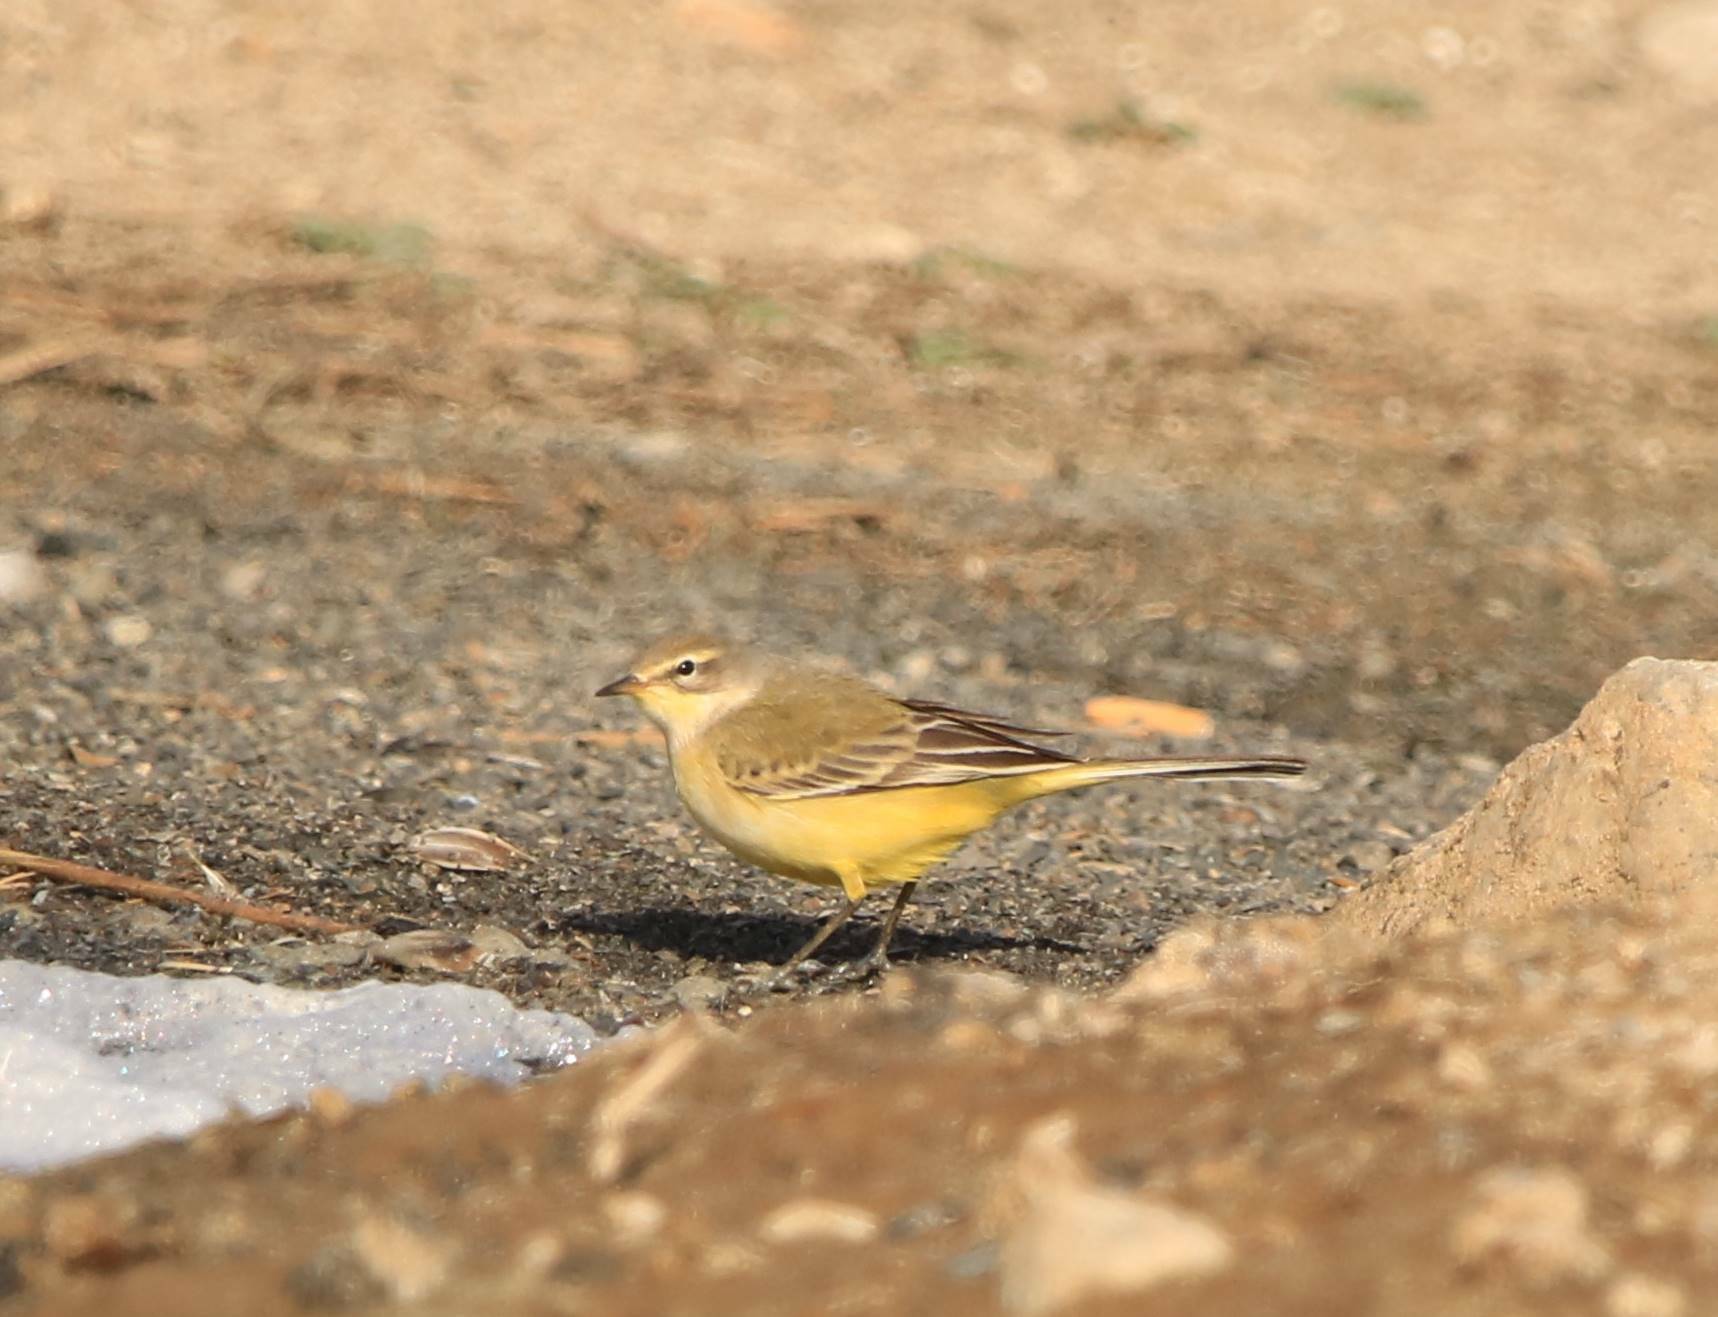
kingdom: Animalia
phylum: Chordata
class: Aves
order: Passeriformes
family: Motacillidae
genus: Motacilla
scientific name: Motacilla flava
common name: Western yellow wagtail
